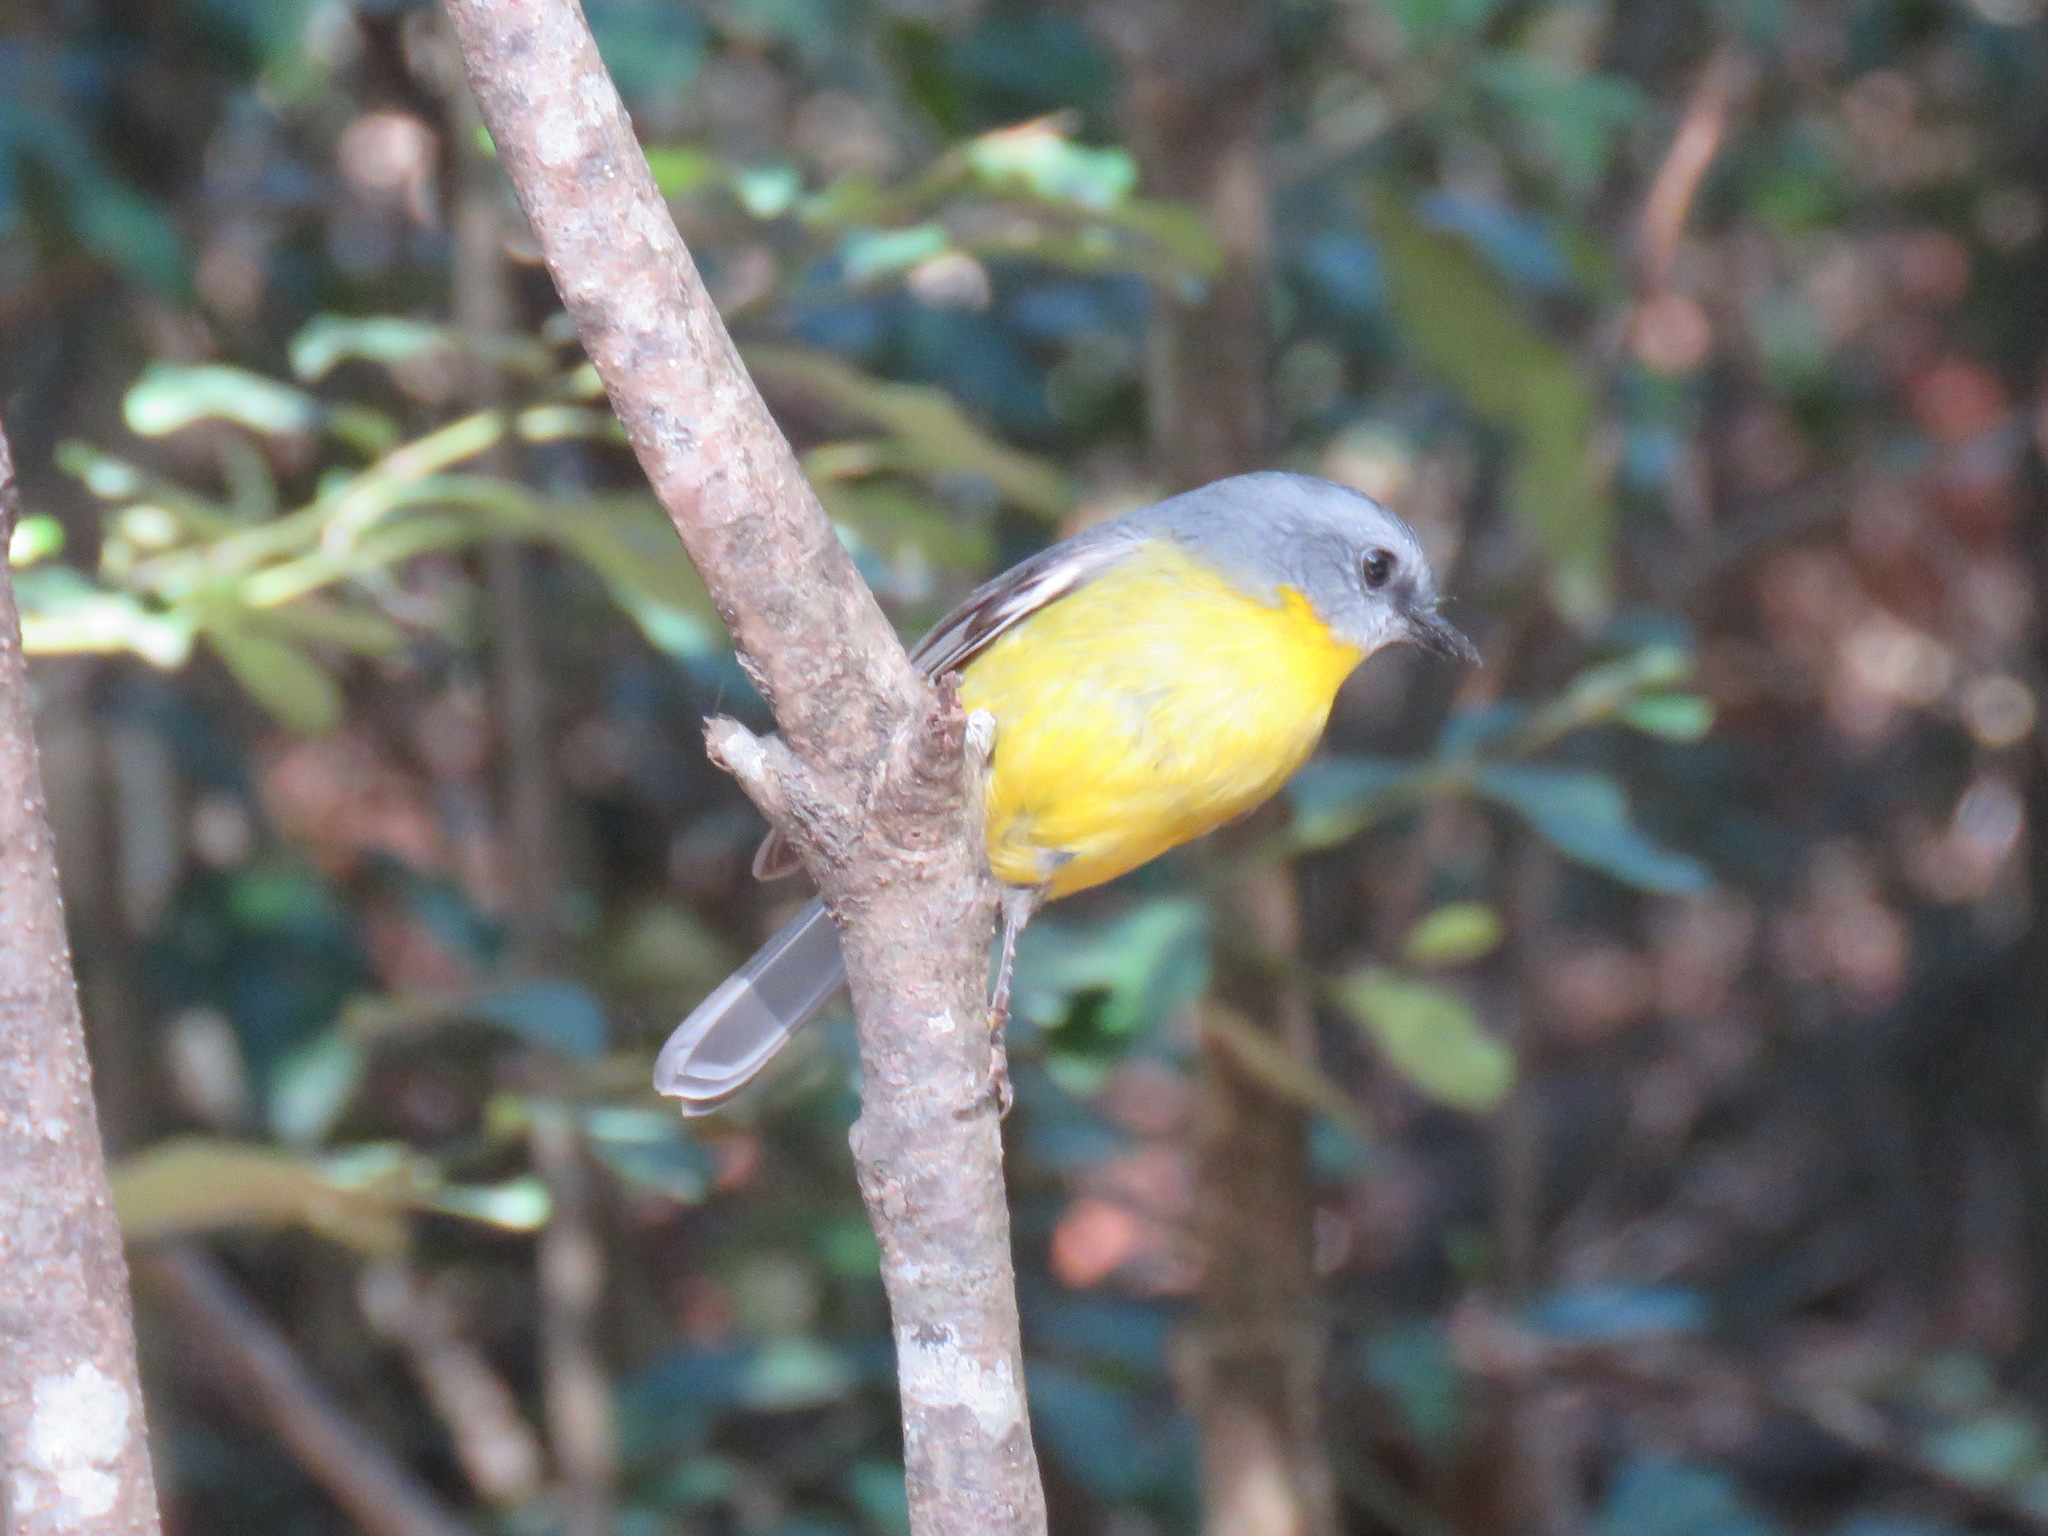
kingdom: Animalia
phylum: Chordata
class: Aves
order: Passeriformes
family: Petroicidae
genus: Eopsaltria
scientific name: Eopsaltria australis
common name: Eastern yellow robin
